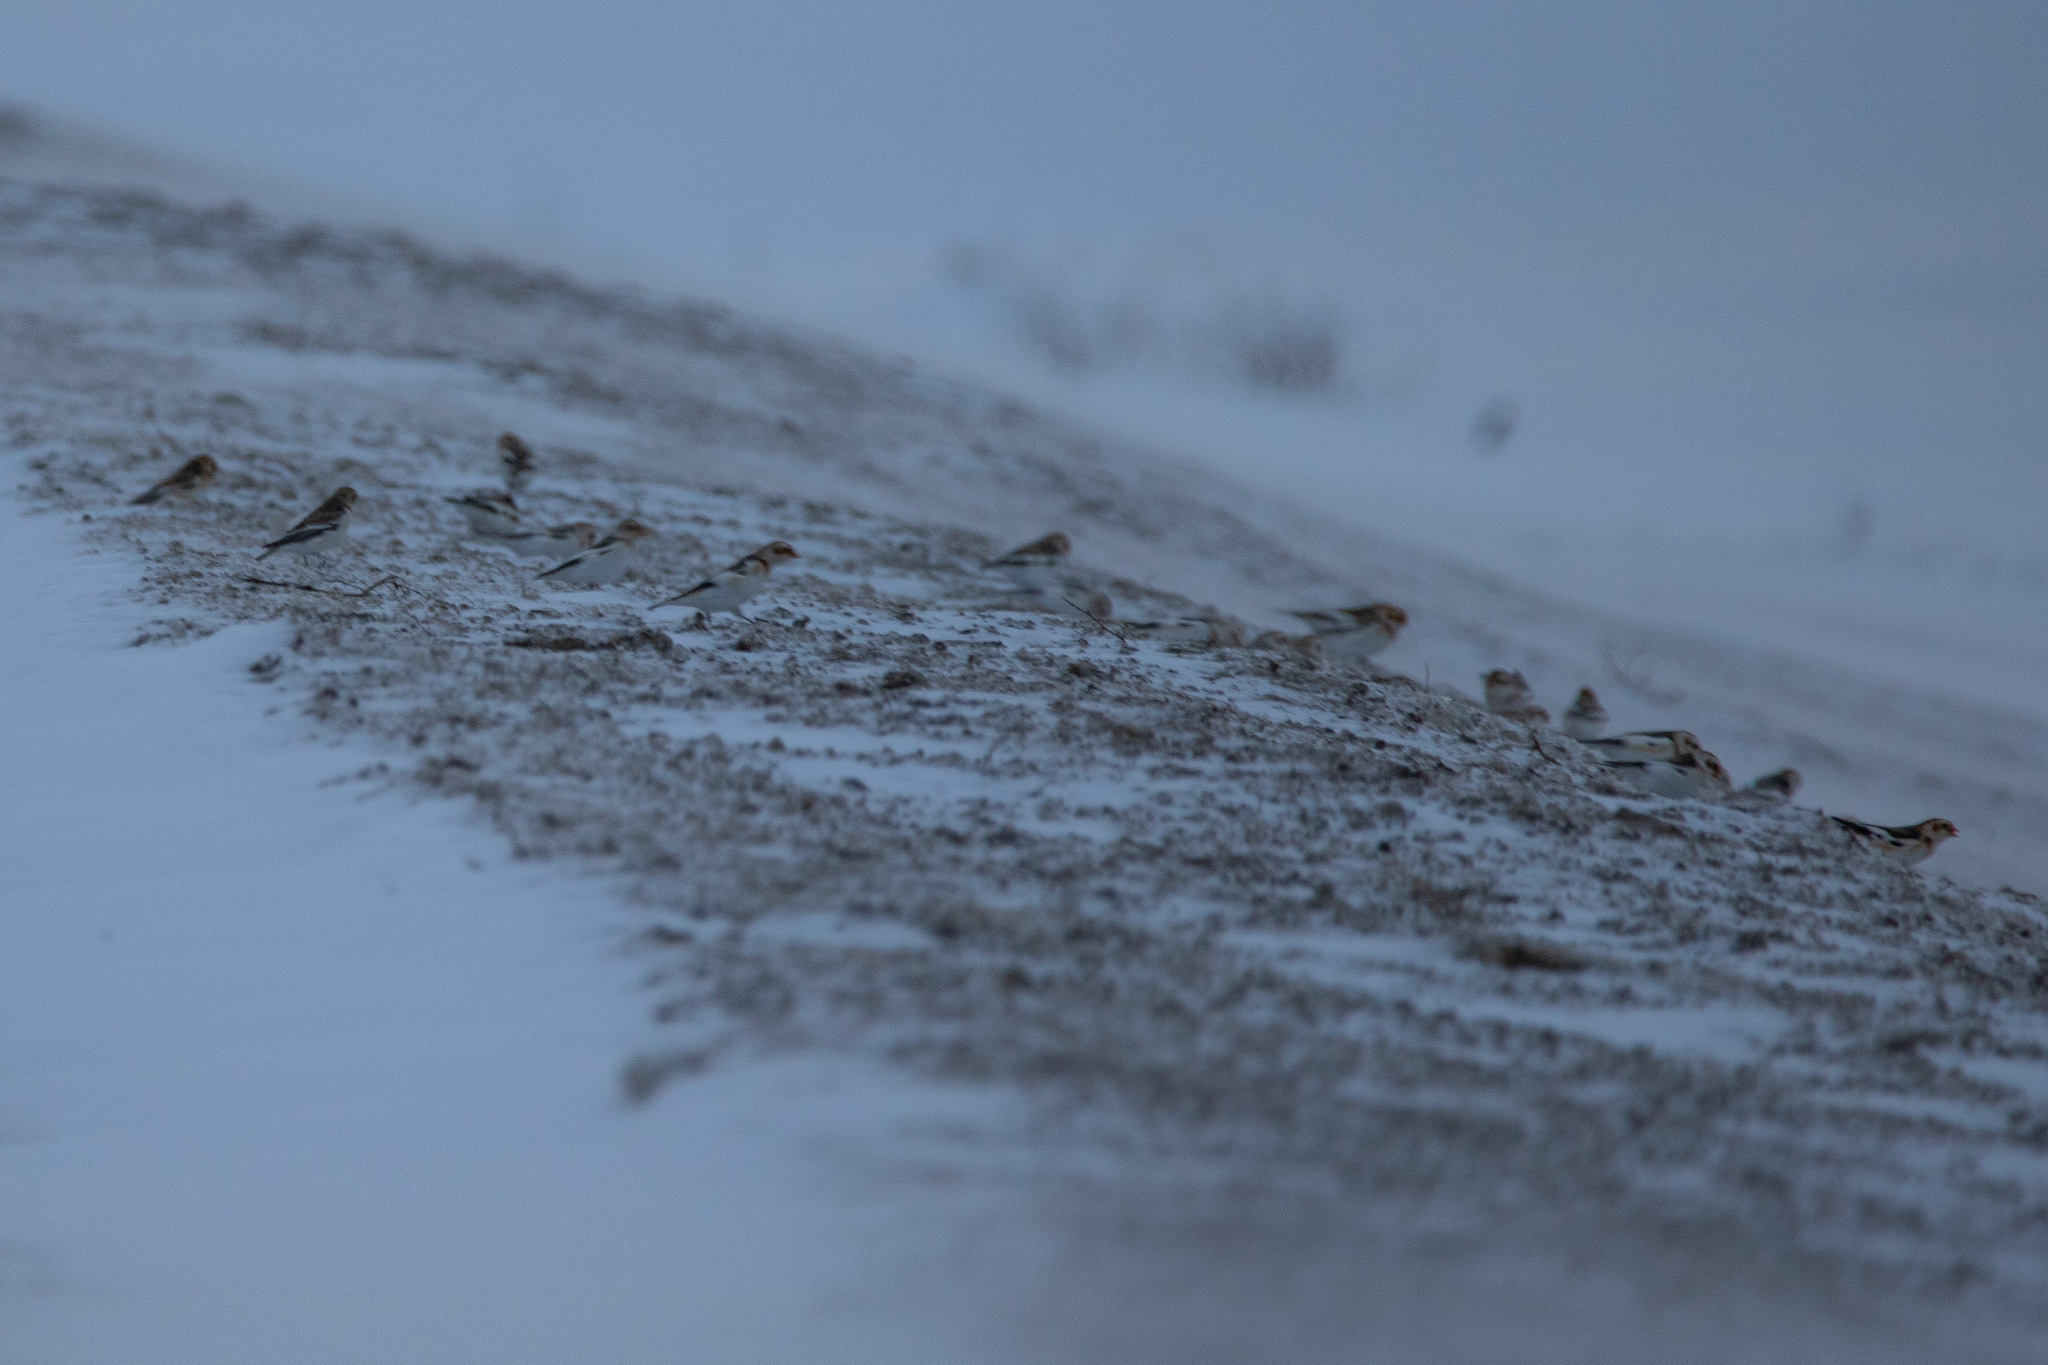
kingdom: Animalia
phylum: Chordata
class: Aves
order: Passeriformes
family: Calcariidae
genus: Plectrophenax
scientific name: Plectrophenax nivalis
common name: Snow bunting
